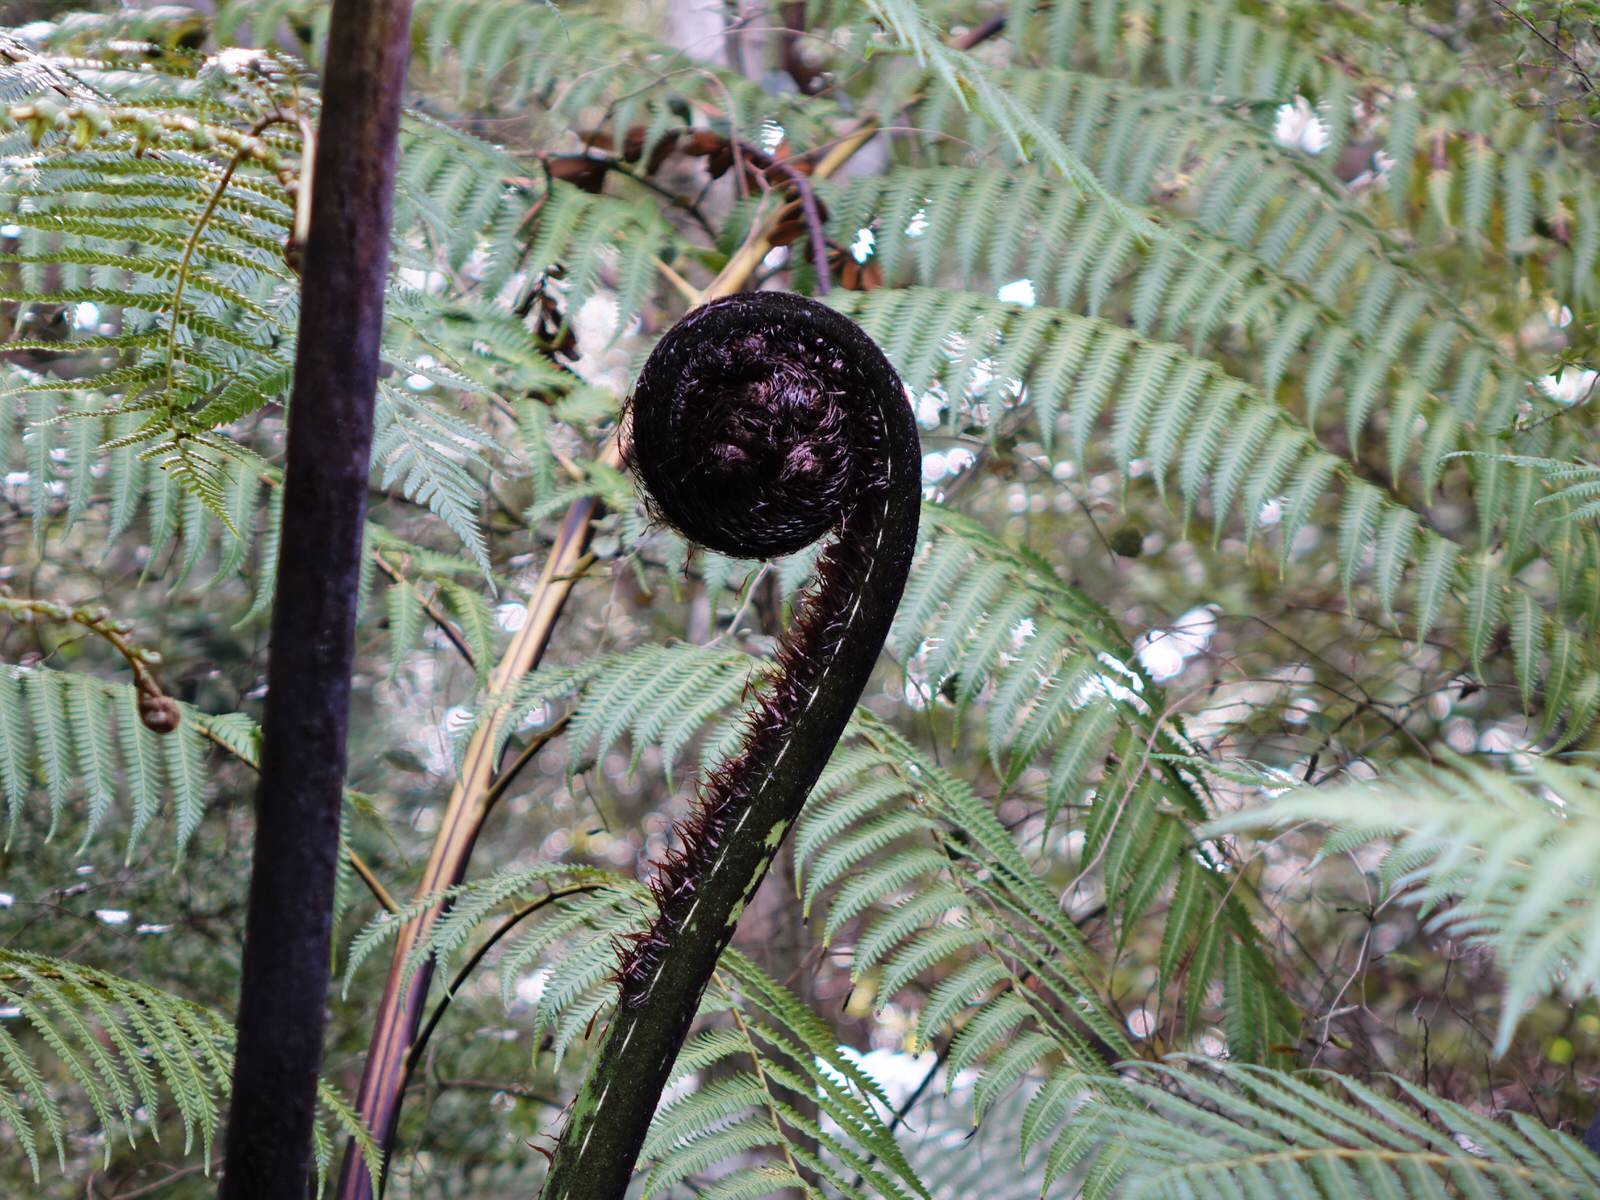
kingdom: Plantae
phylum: Tracheophyta
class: Polypodiopsida
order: Cyatheales
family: Cyatheaceae
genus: Sphaeropteris
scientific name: Sphaeropteris medullaris
